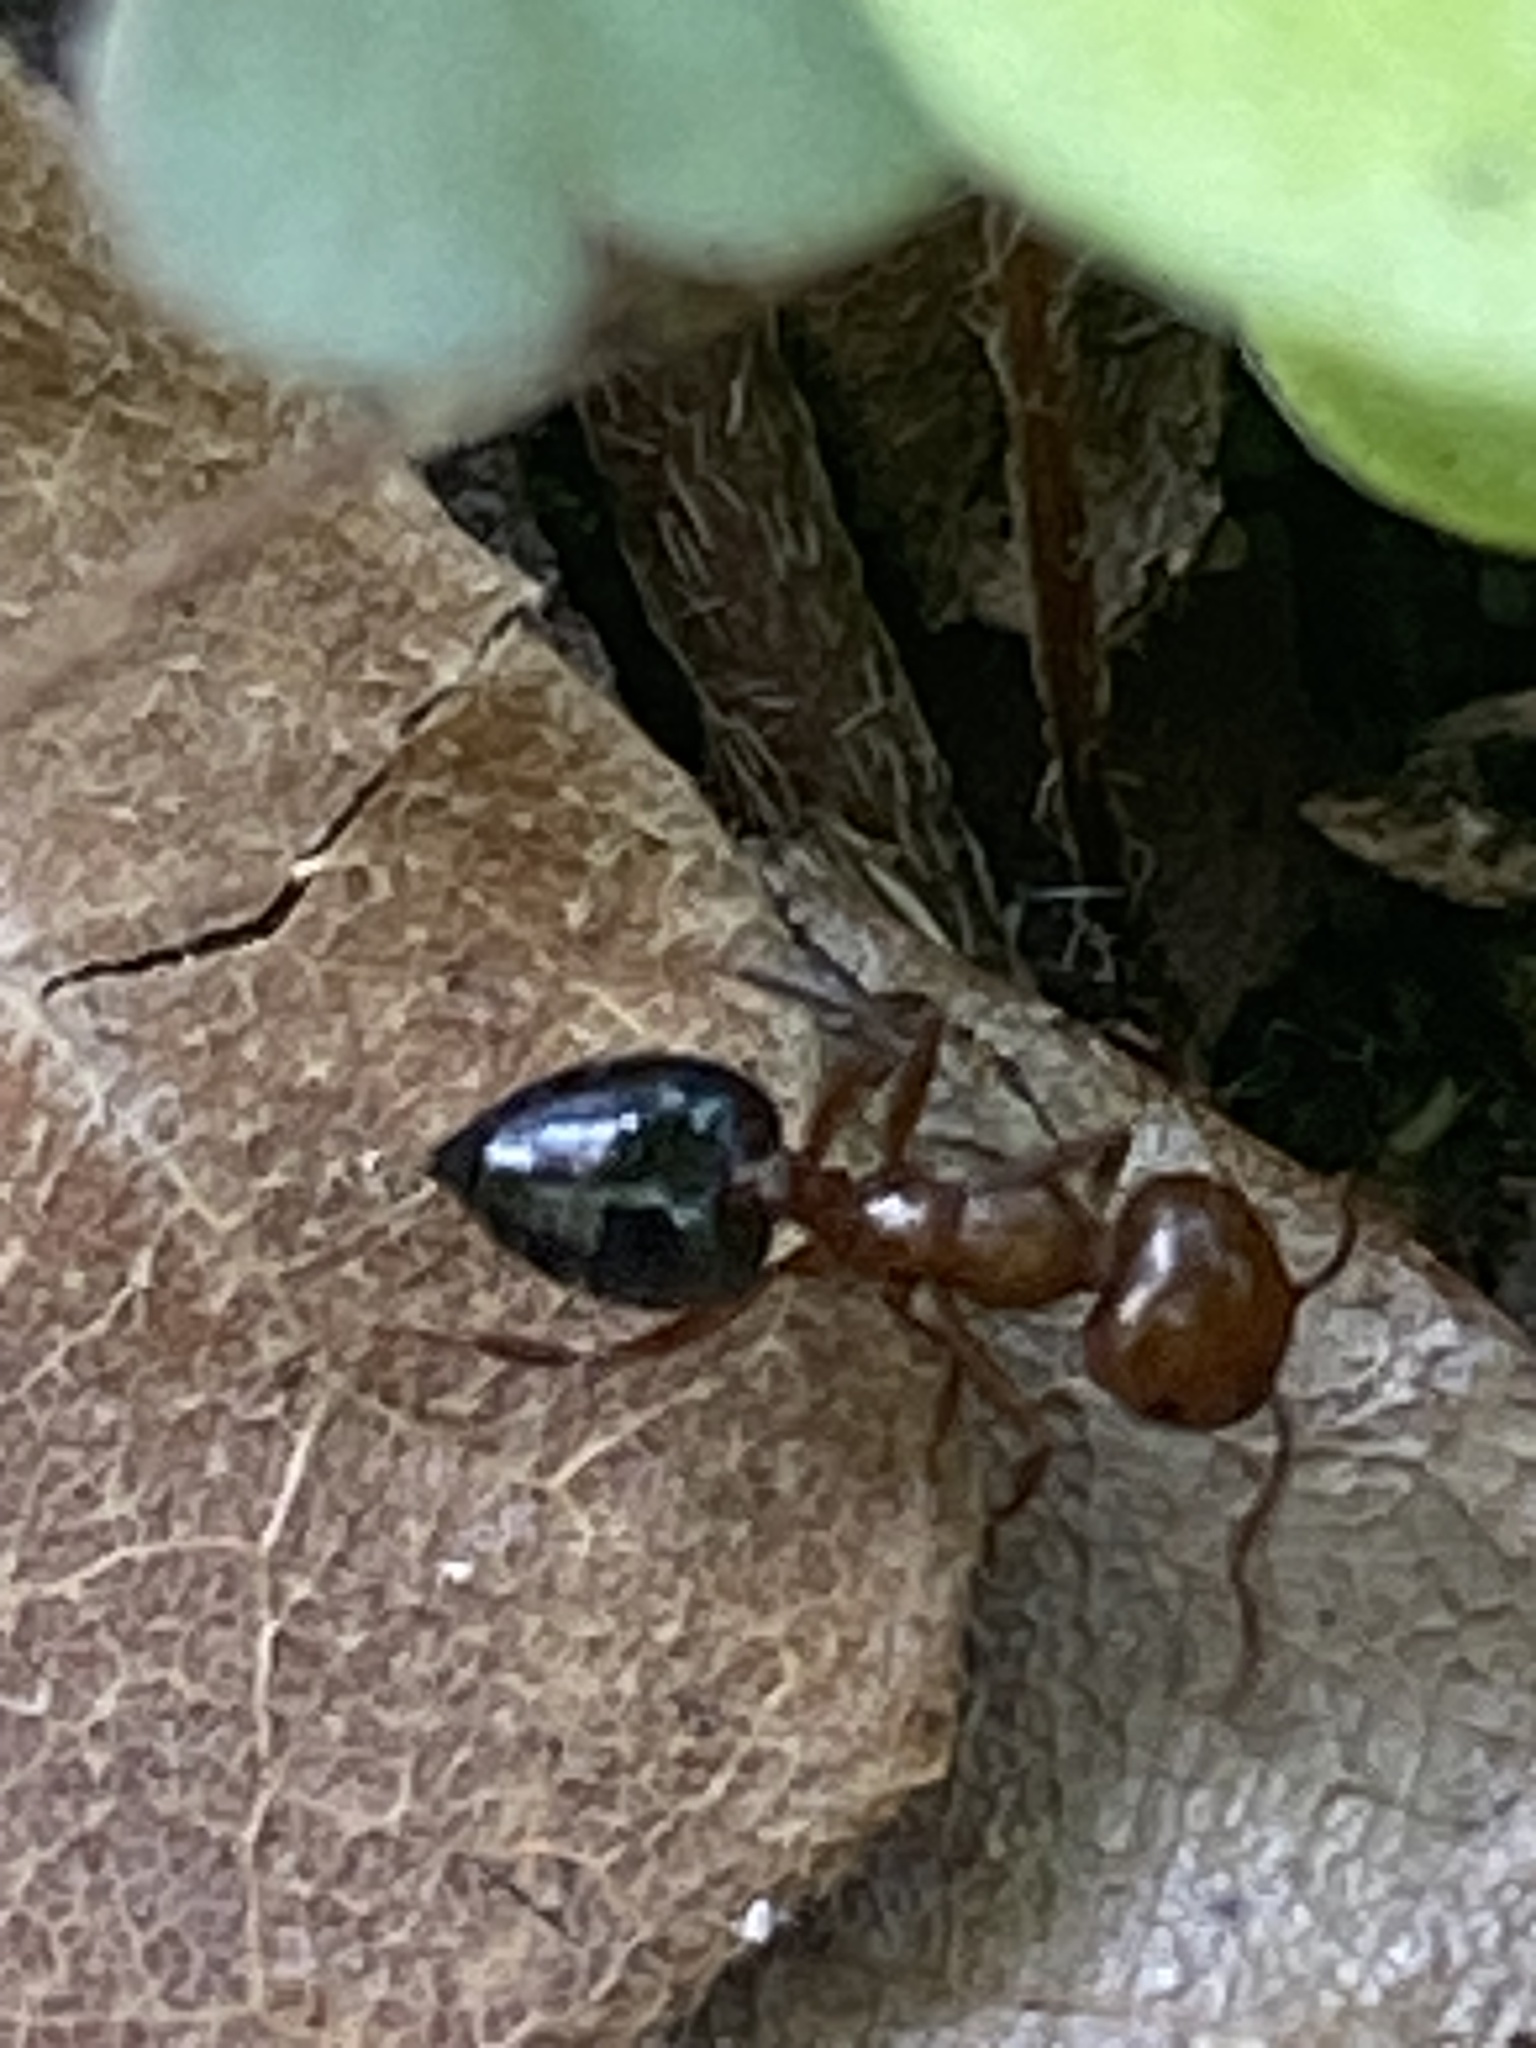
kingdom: Animalia
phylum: Arthropoda
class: Insecta
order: Hymenoptera
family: Formicidae
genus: Crematogaster
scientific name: Crematogaster laeviuscula
